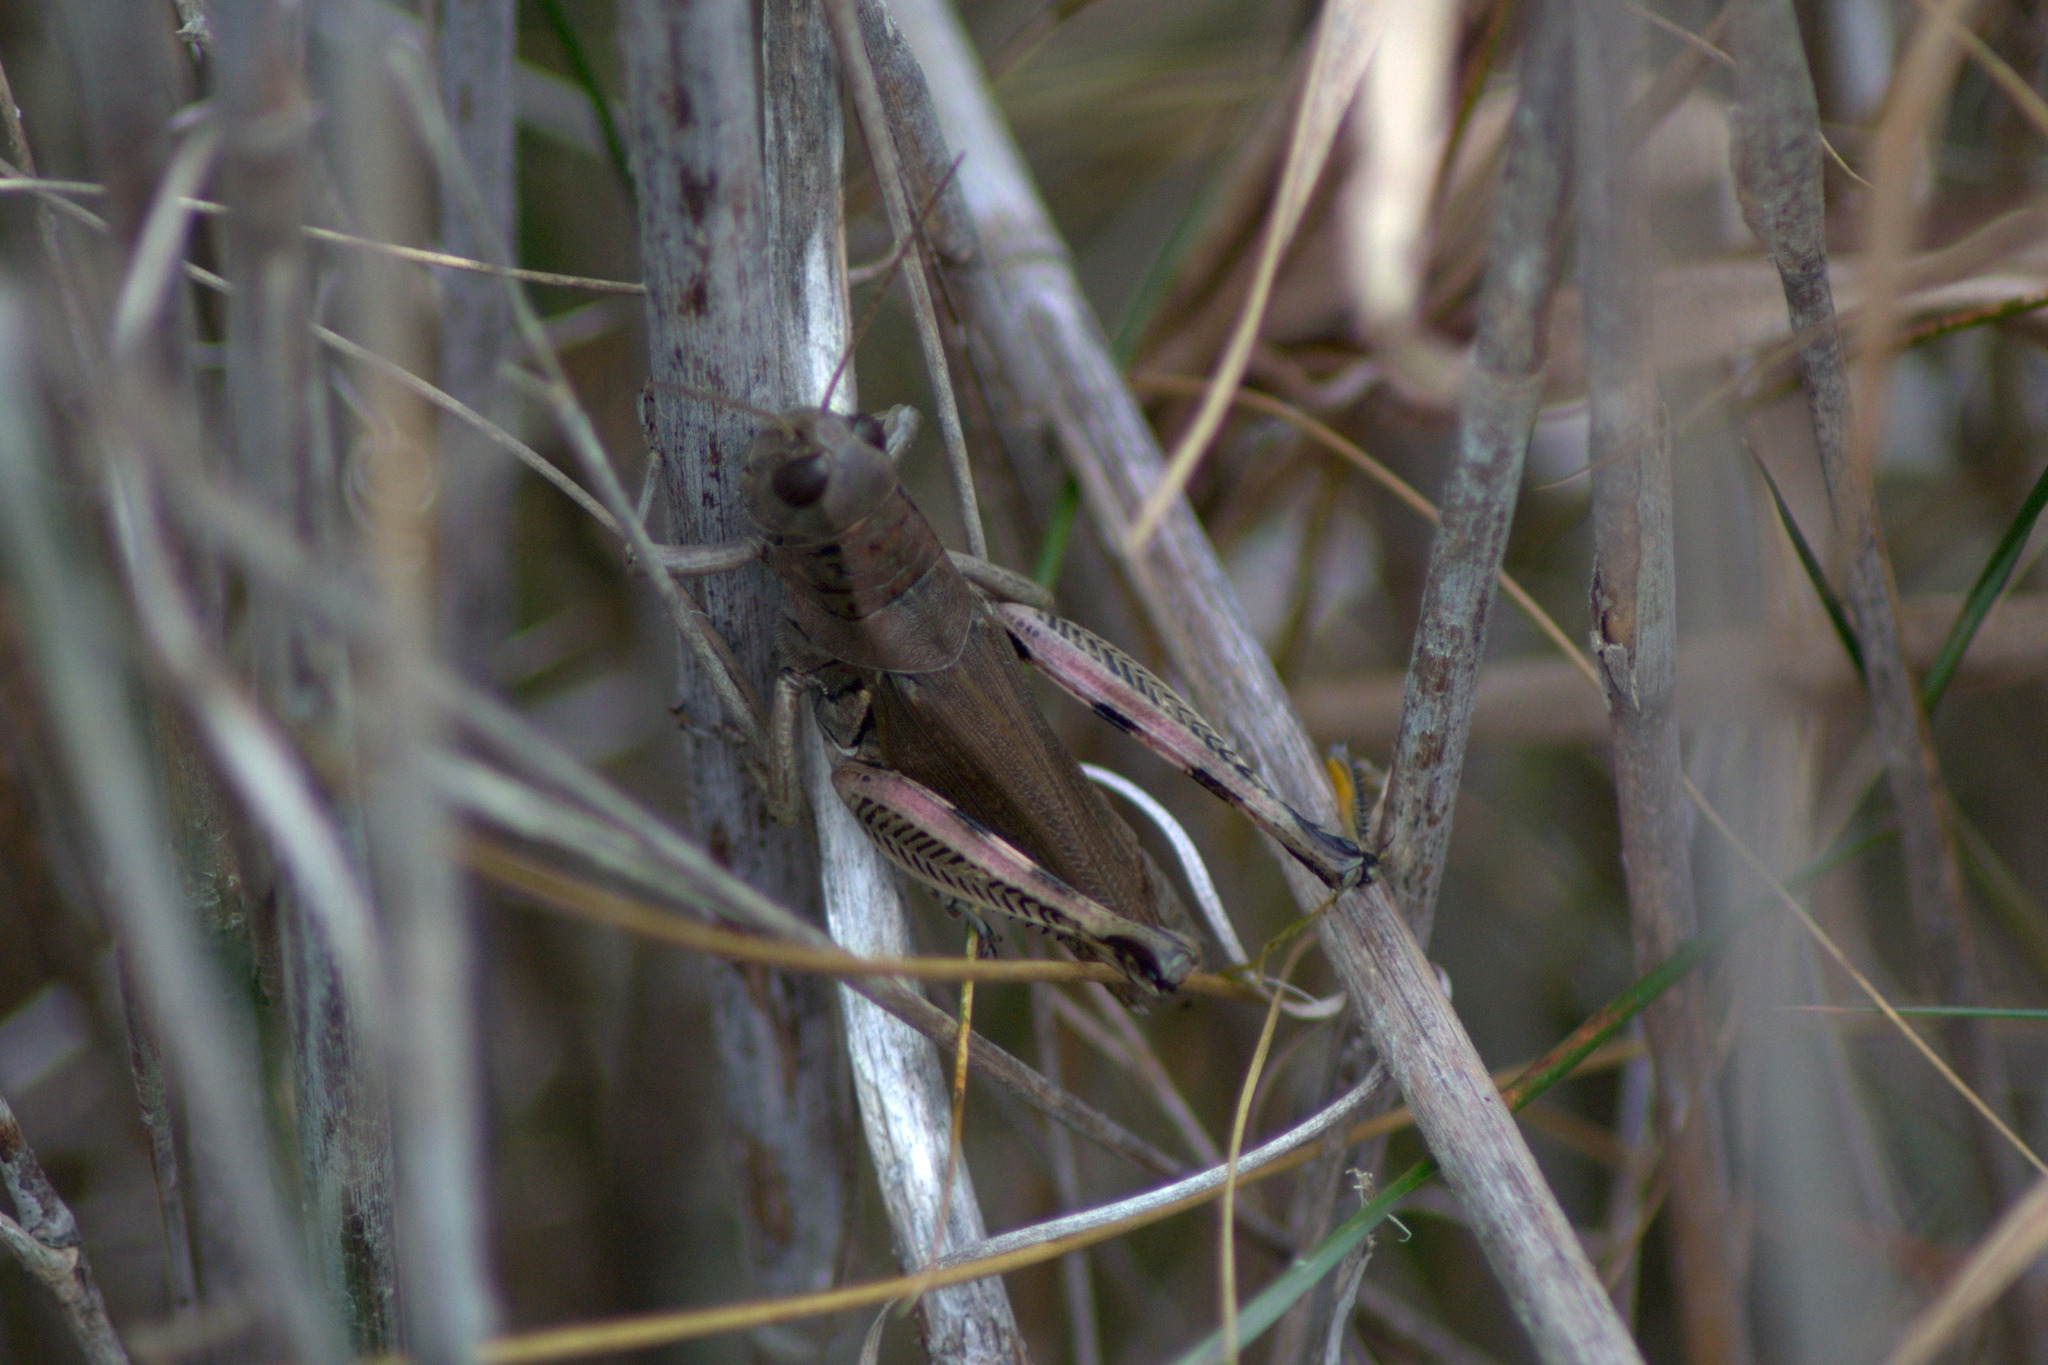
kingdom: Animalia
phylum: Arthropoda
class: Insecta
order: Orthoptera
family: Acrididae
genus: Melanoplus
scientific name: Melanoplus differentialis
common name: Differential grasshopper
